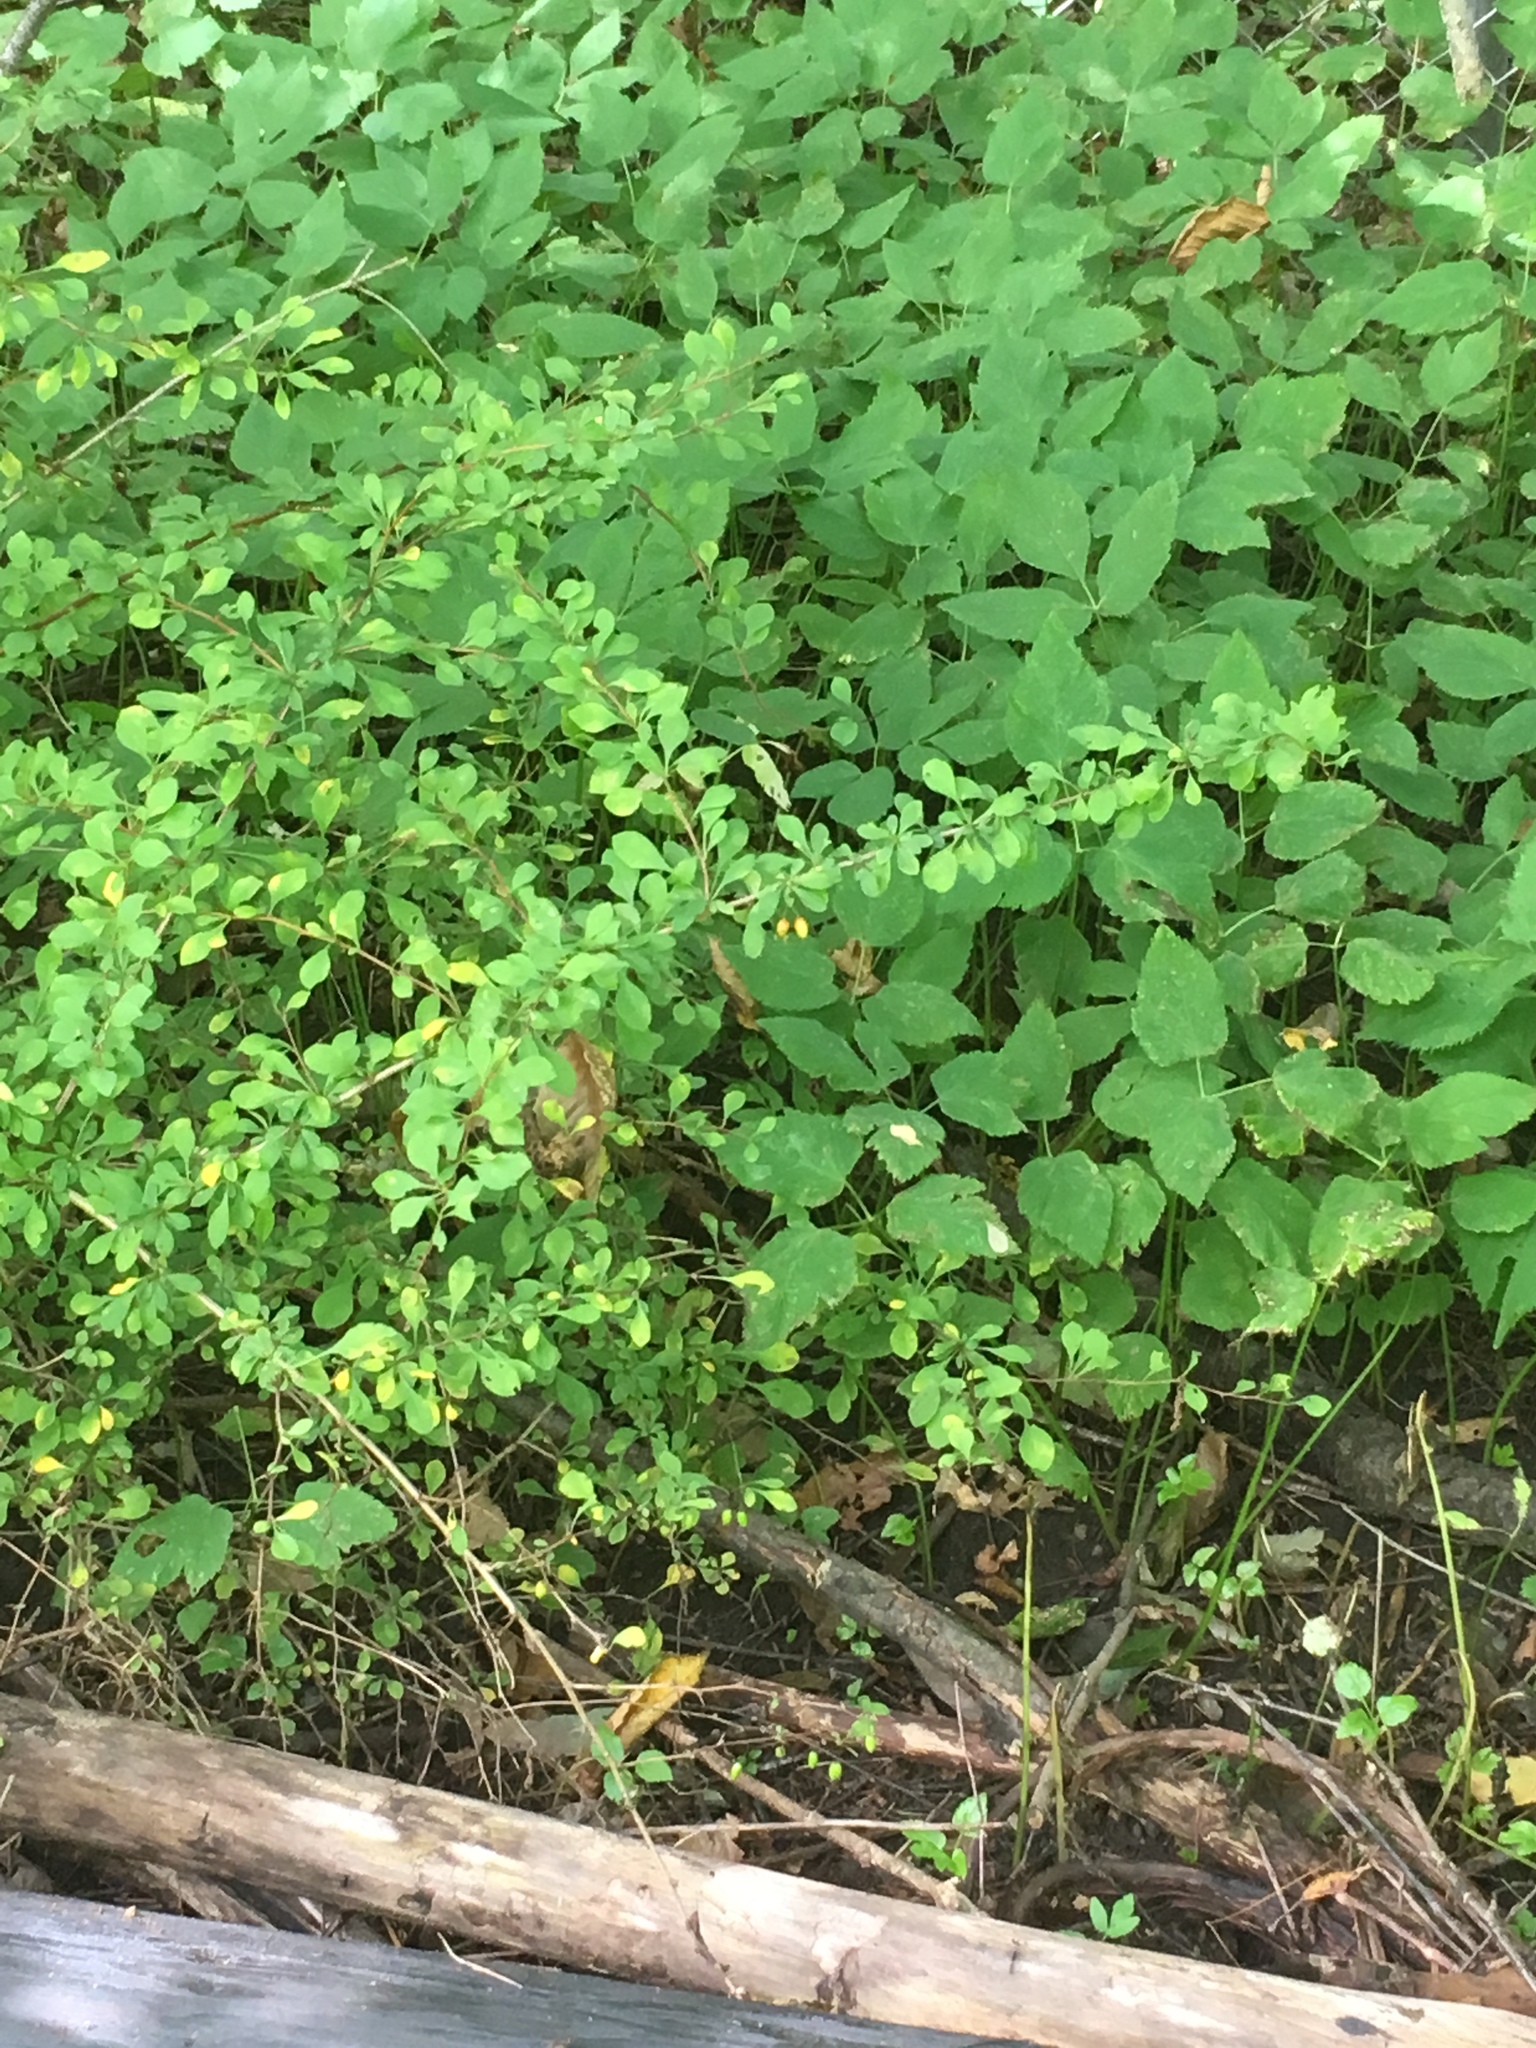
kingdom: Plantae
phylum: Tracheophyta
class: Magnoliopsida
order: Ranunculales
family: Berberidaceae
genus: Berberis
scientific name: Berberis thunbergii
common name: Japanese barberry
